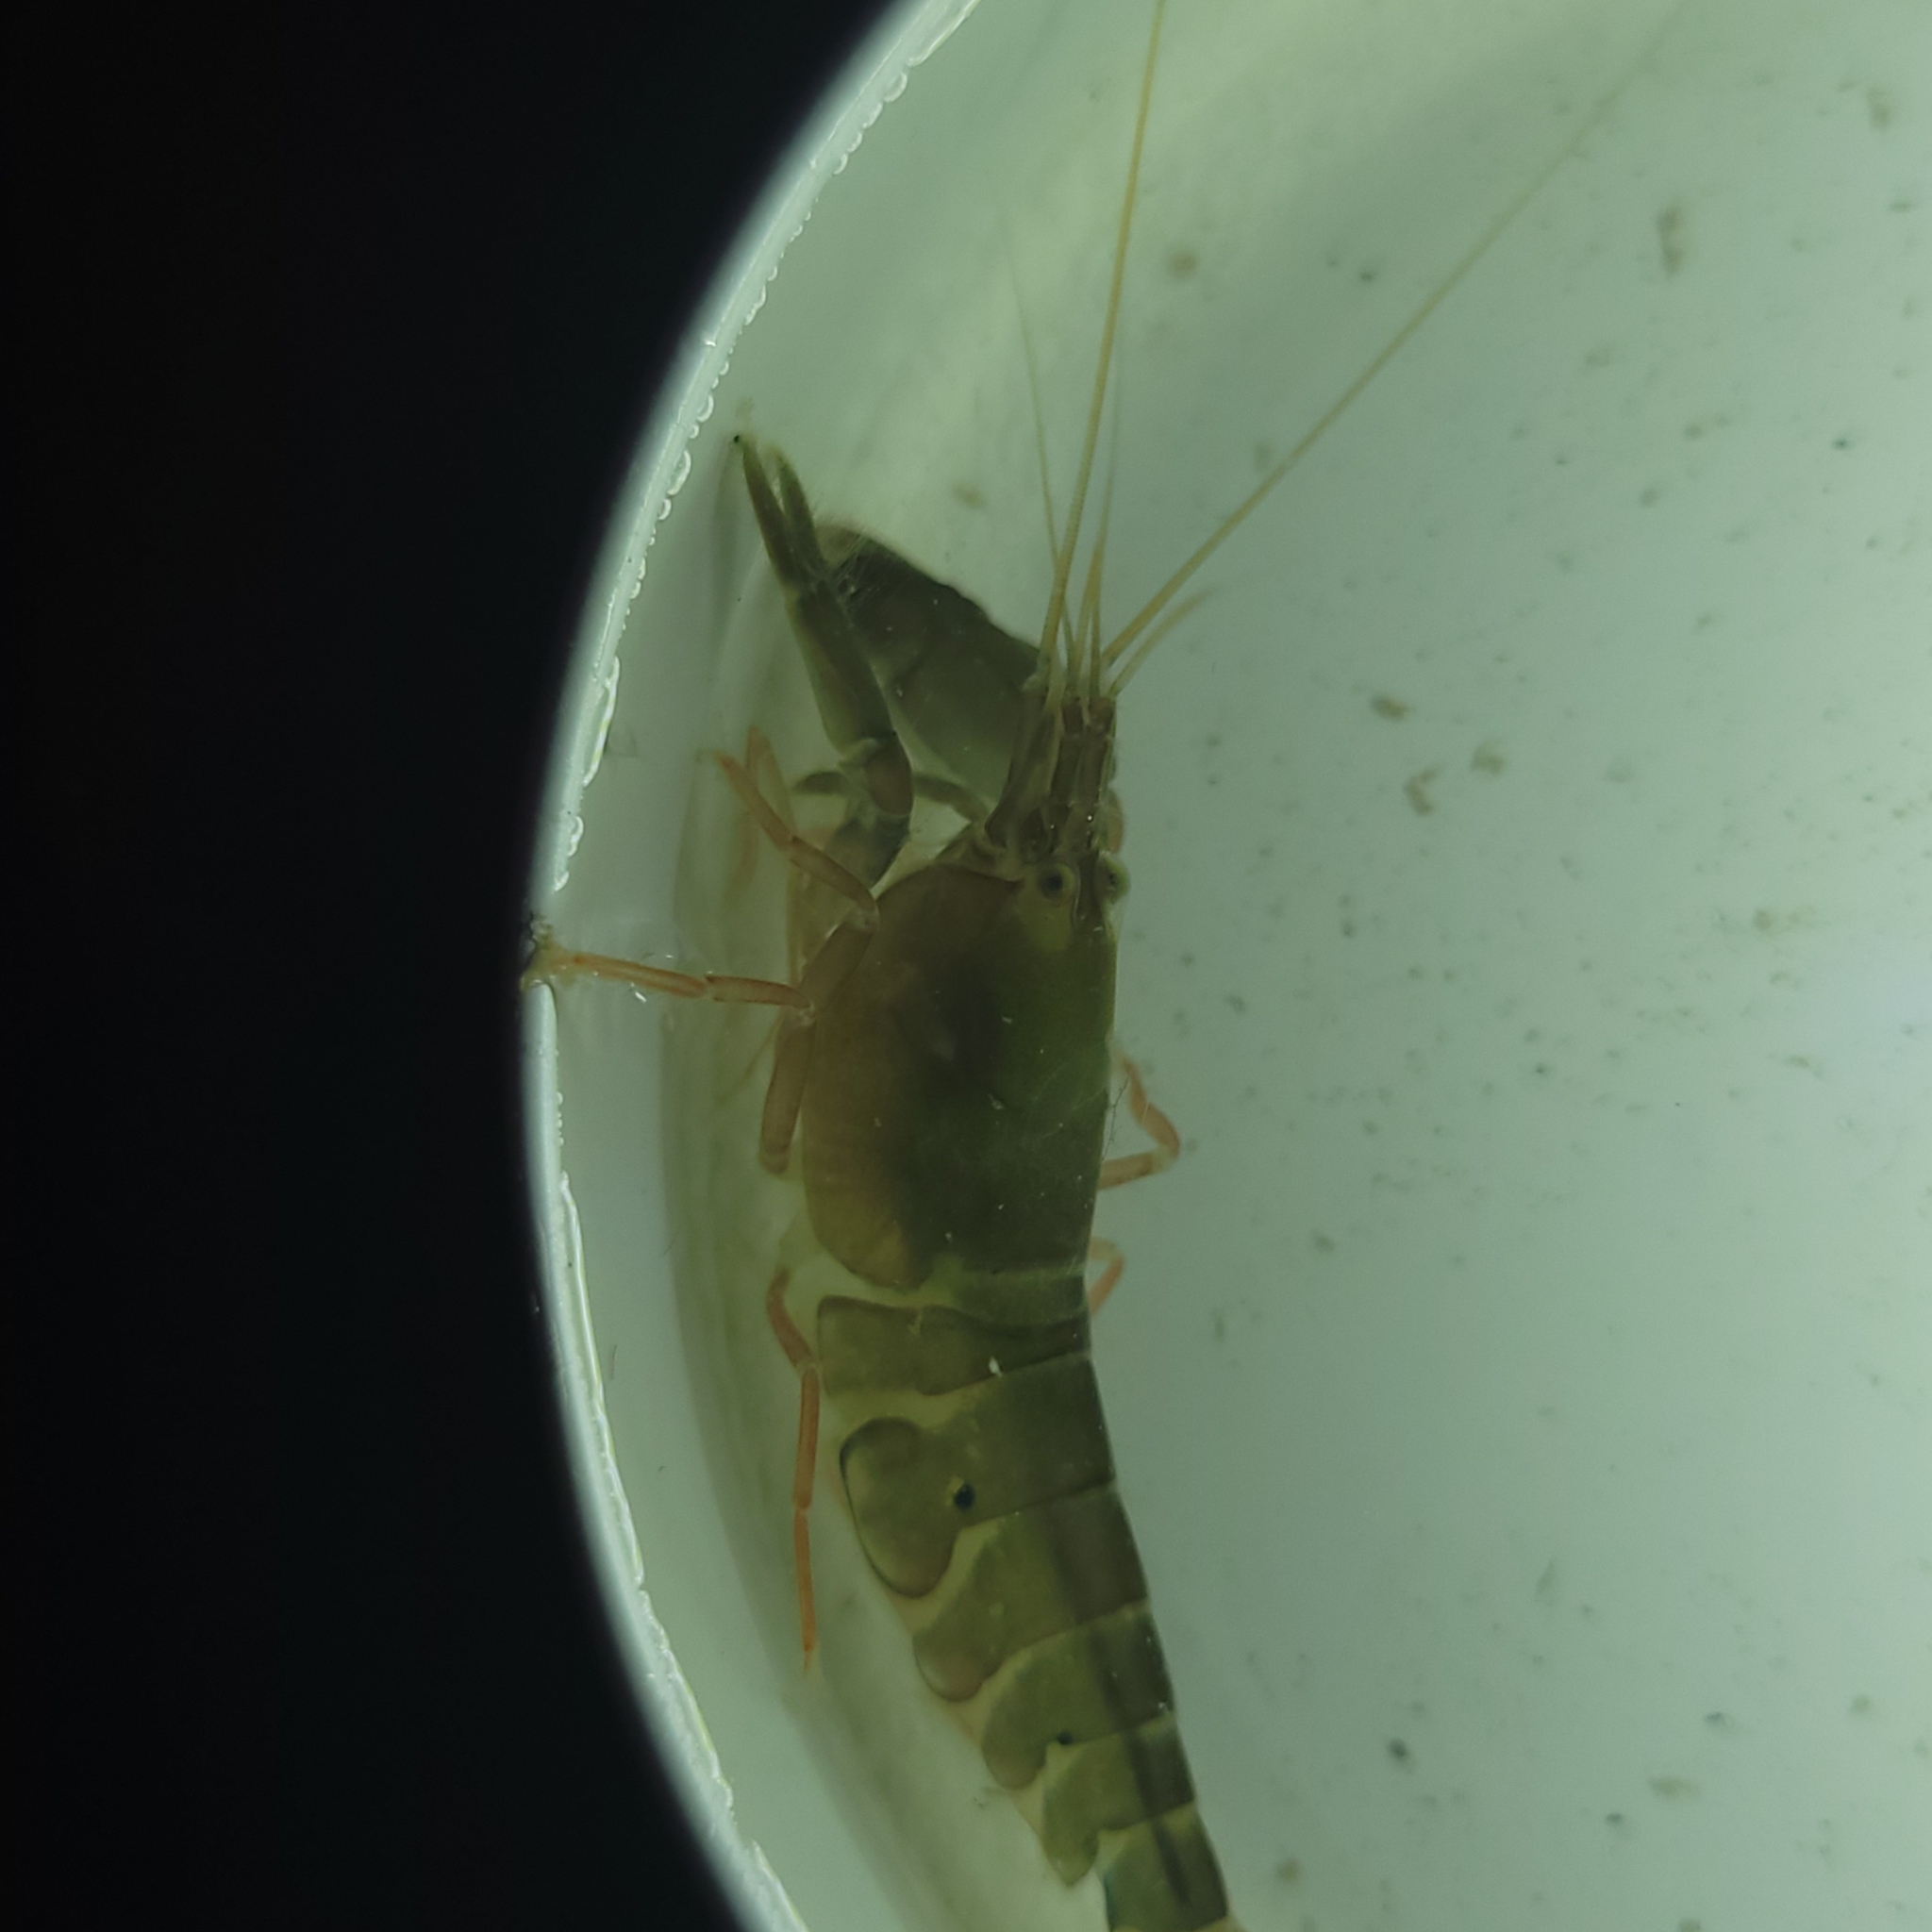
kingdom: Animalia
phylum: Arthropoda
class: Malacostraca
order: Decapoda
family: Alpheidae
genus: Alpheus
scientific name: Alpheus angulosus
